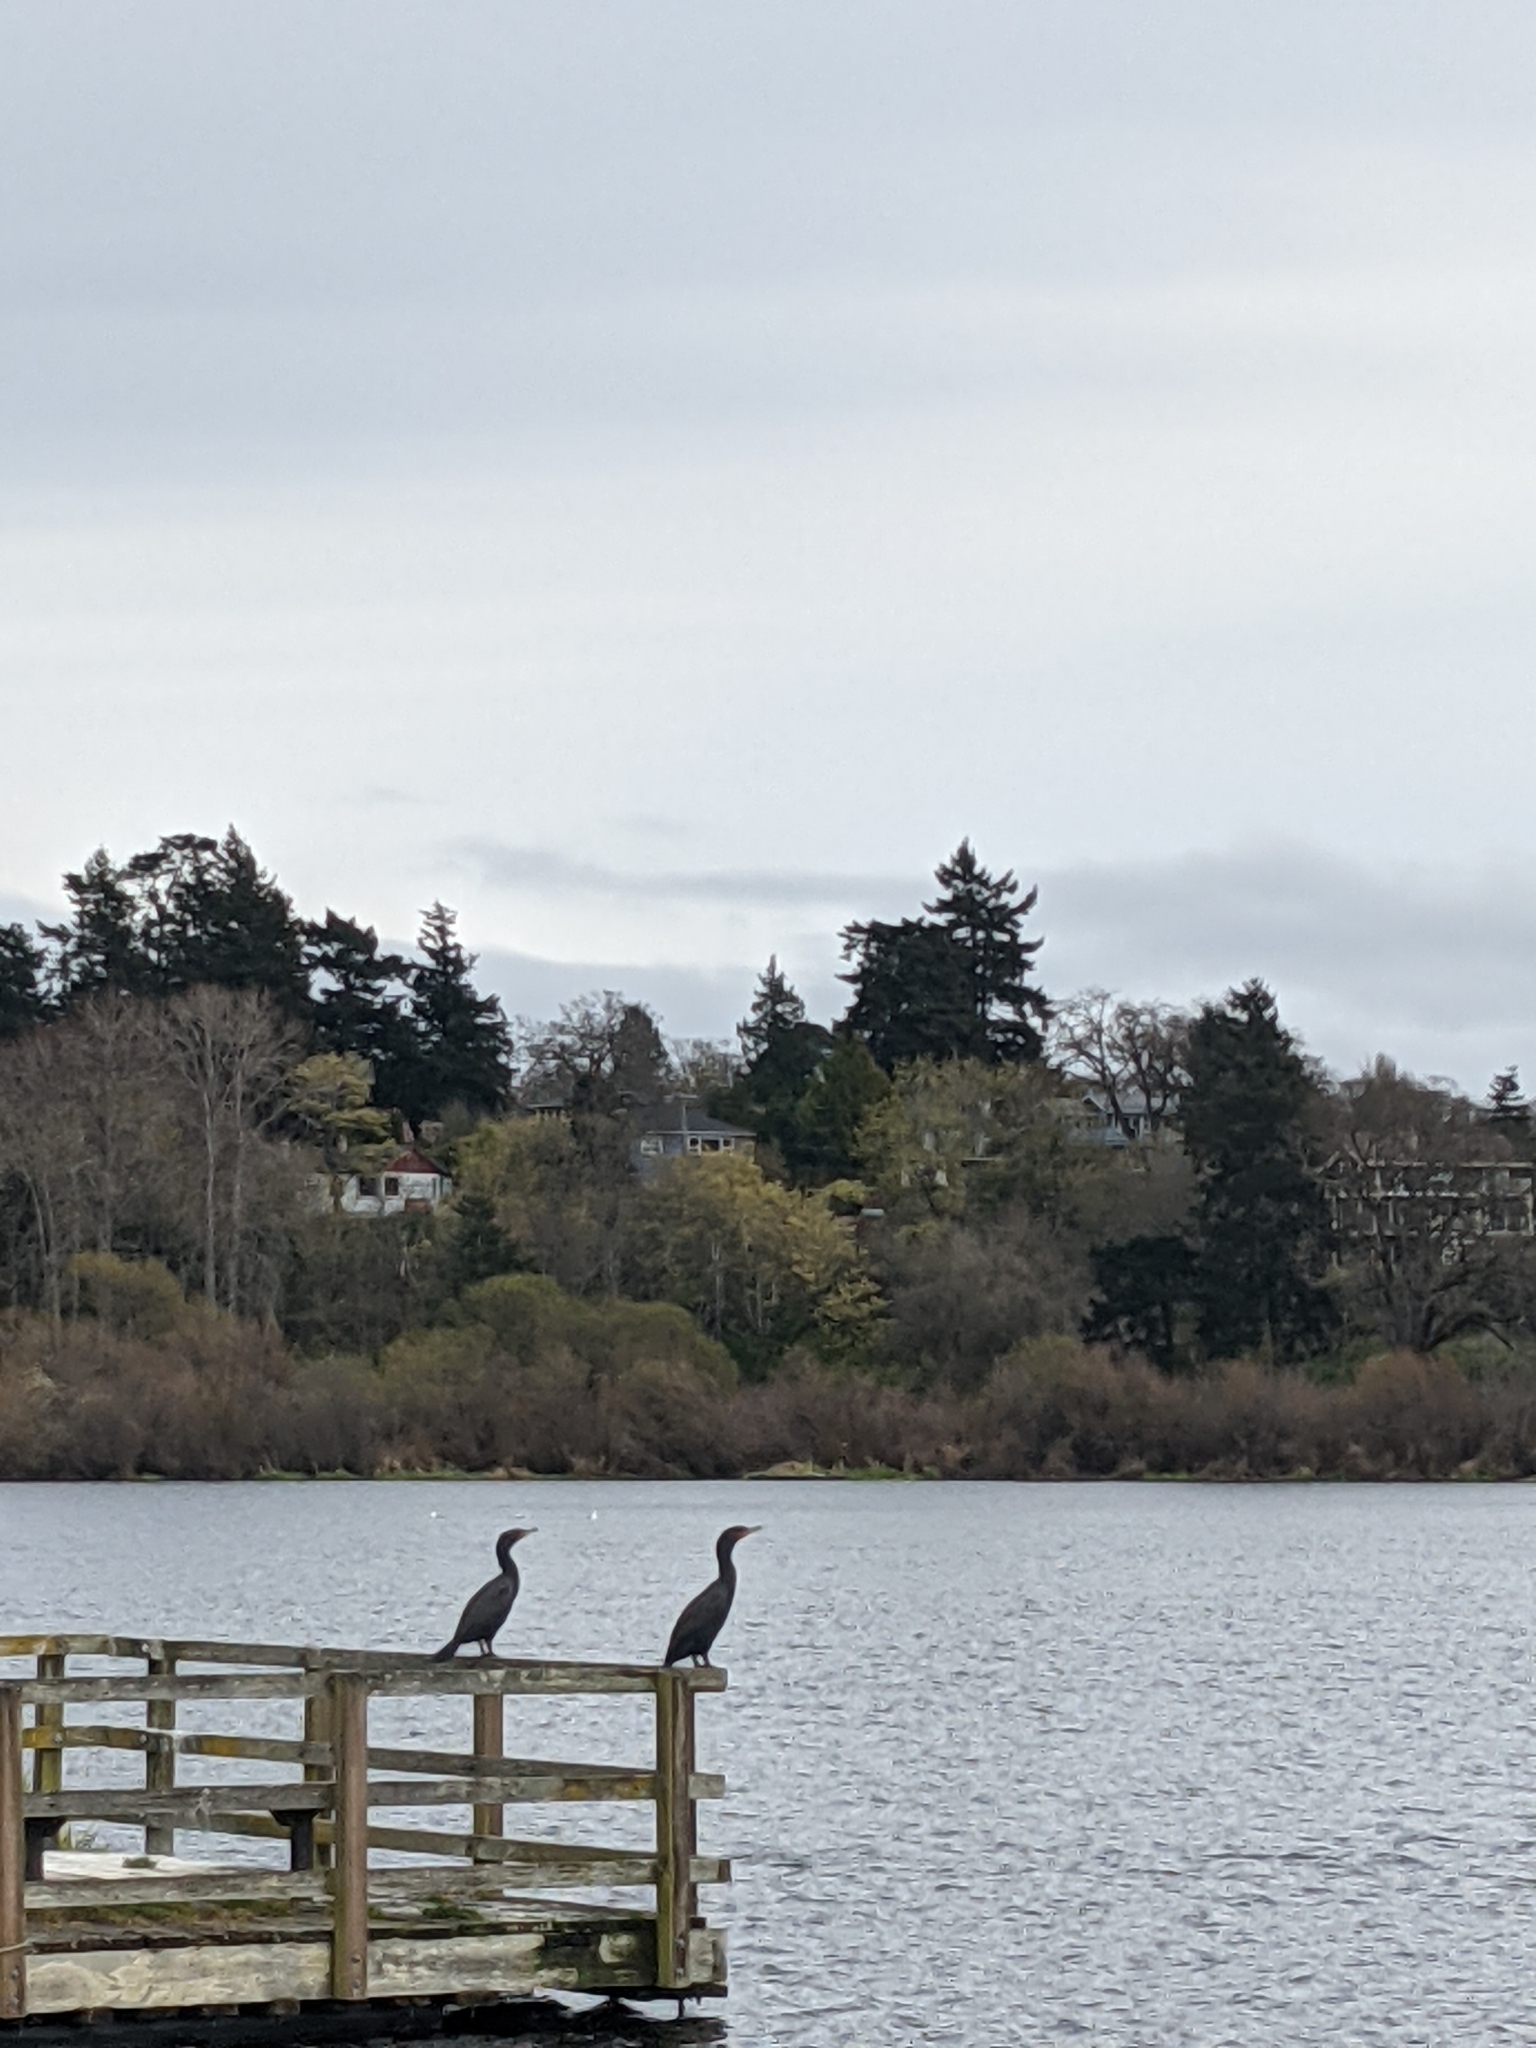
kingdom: Animalia
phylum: Chordata
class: Aves
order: Suliformes
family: Phalacrocoracidae
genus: Phalacrocorax
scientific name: Phalacrocorax auritus
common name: Double-crested cormorant
